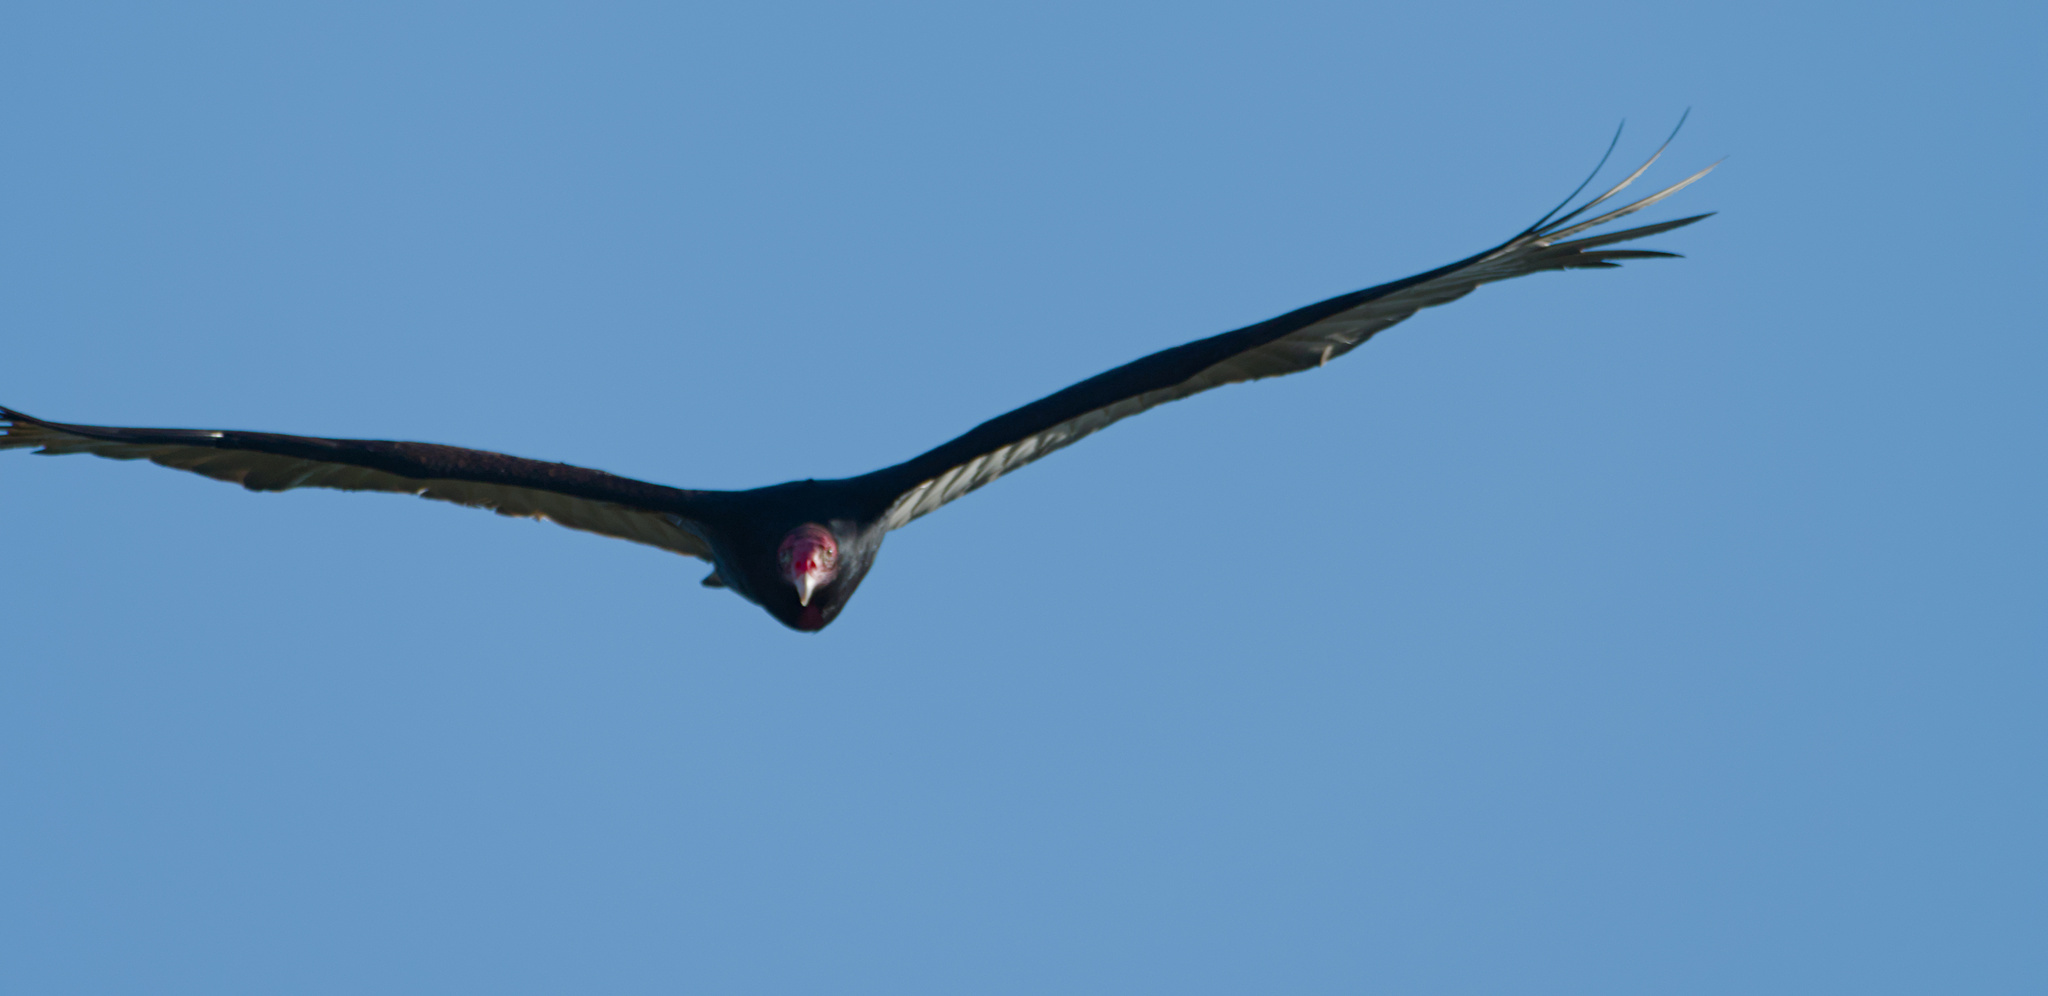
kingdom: Animalia
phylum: Chordata
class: Aves
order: Accipitriformes
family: Cathartidae
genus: Cathartes
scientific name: Cathartes aura
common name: Turkey vulture
